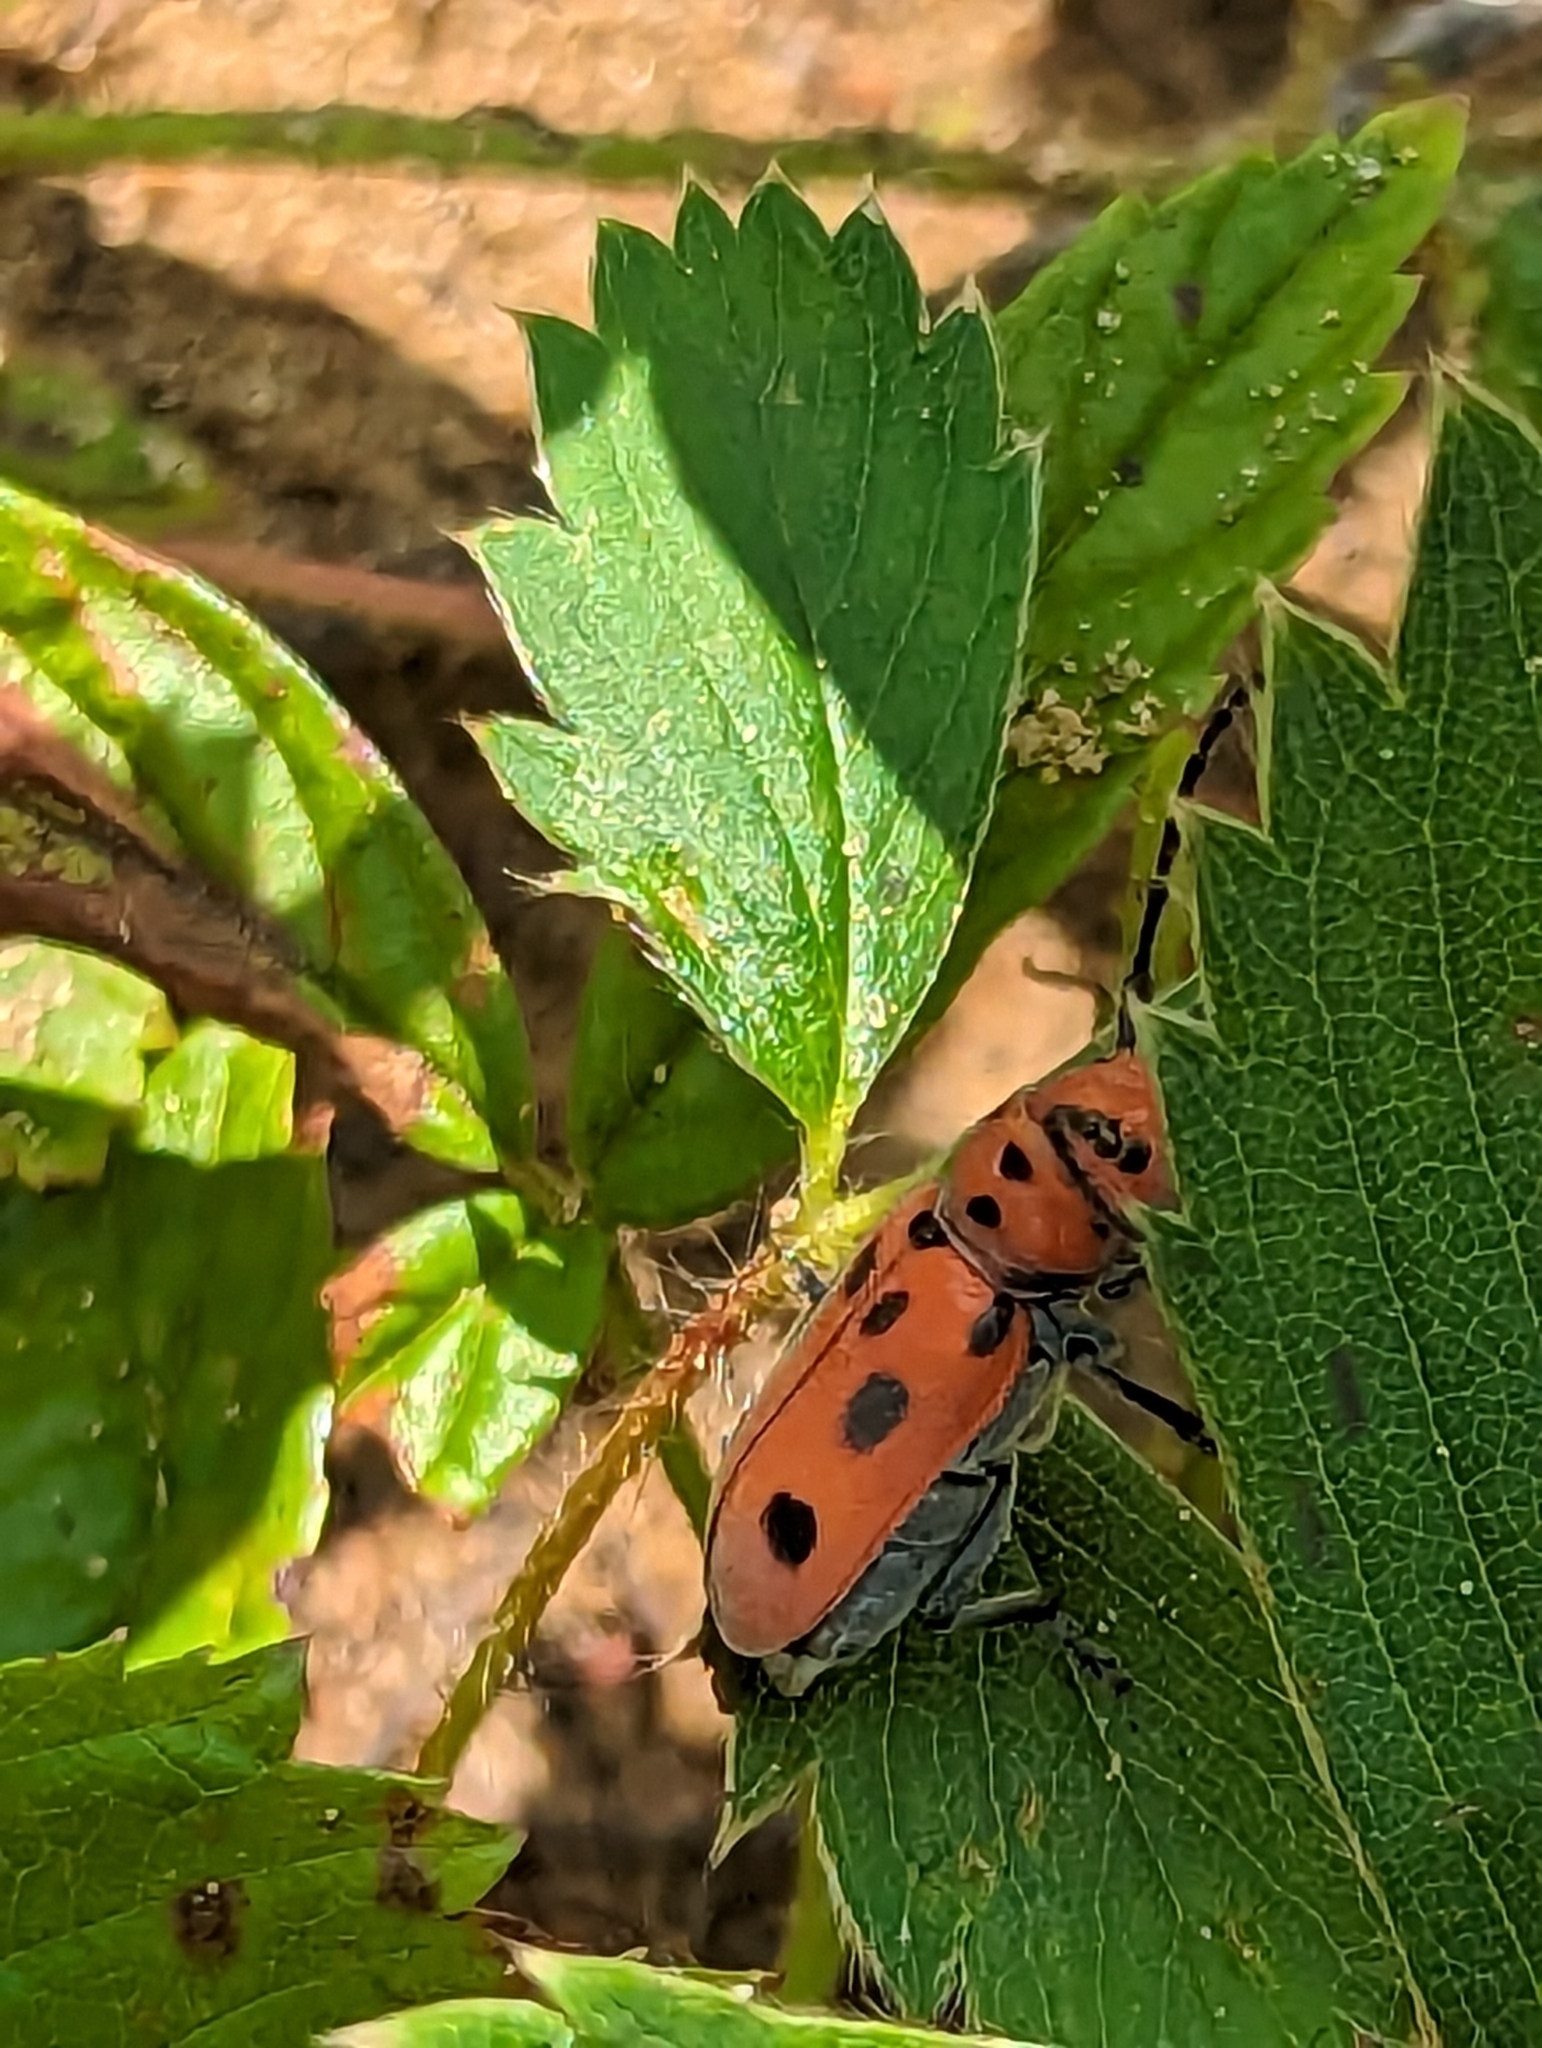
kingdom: Animalia
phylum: Arthropoda
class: Insecta
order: Coleoptera
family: Cerambycidae
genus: Tetraopes
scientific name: Tetraopes tetrophthalmus
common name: Red milkweed beetle
